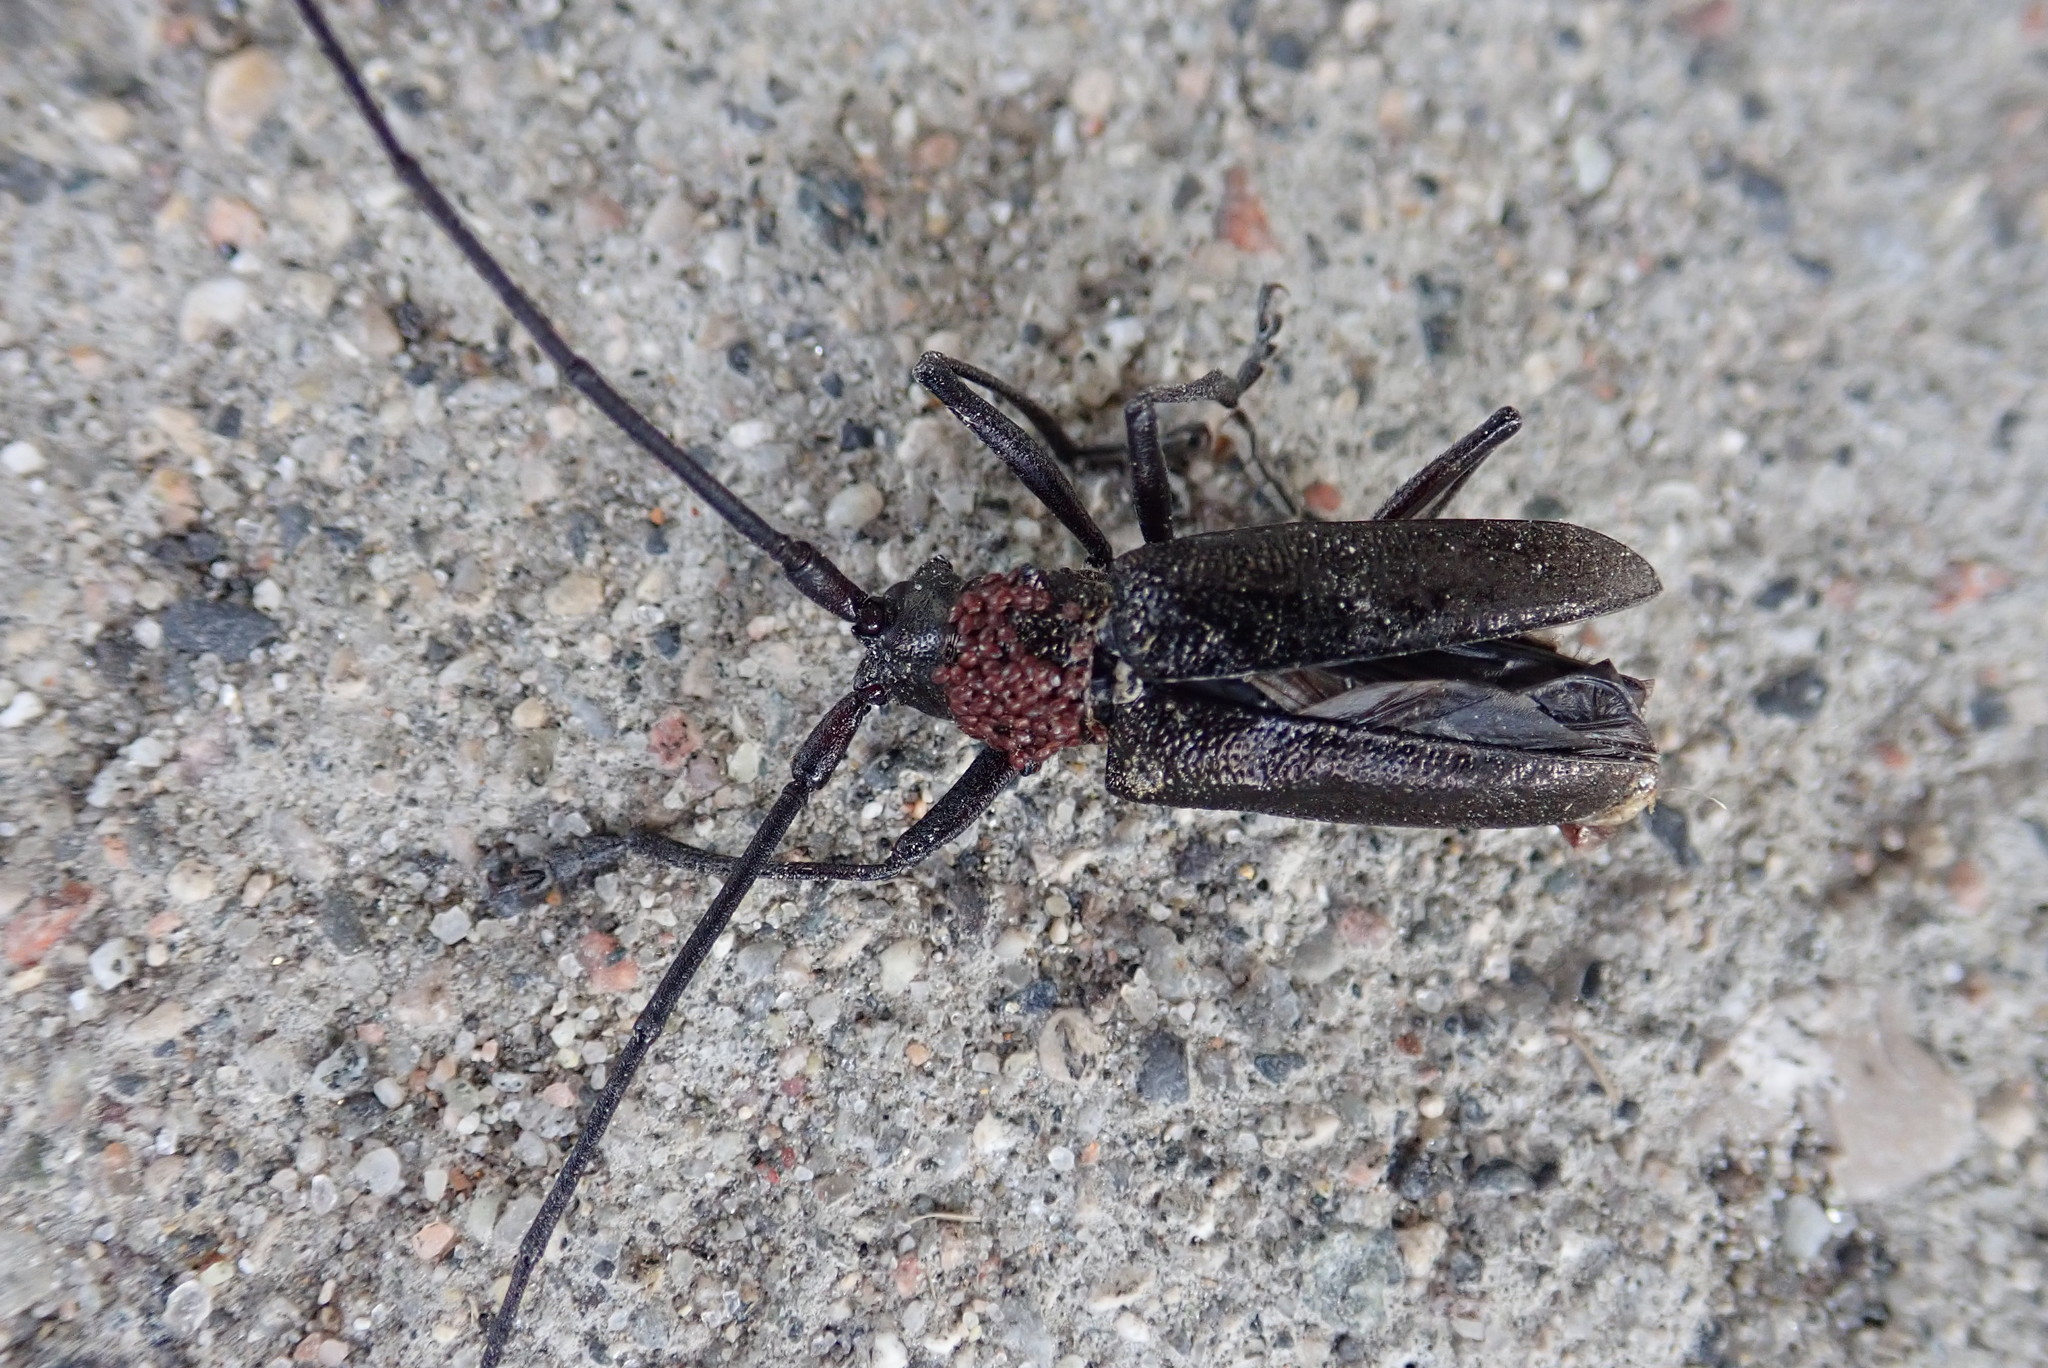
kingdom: Animalia
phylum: Arthropoda
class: Insecta
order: Coleoptera
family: Cerambycidae
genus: Monochamus
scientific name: Monochamus scutellatus
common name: White-spotted sawyer beetle
